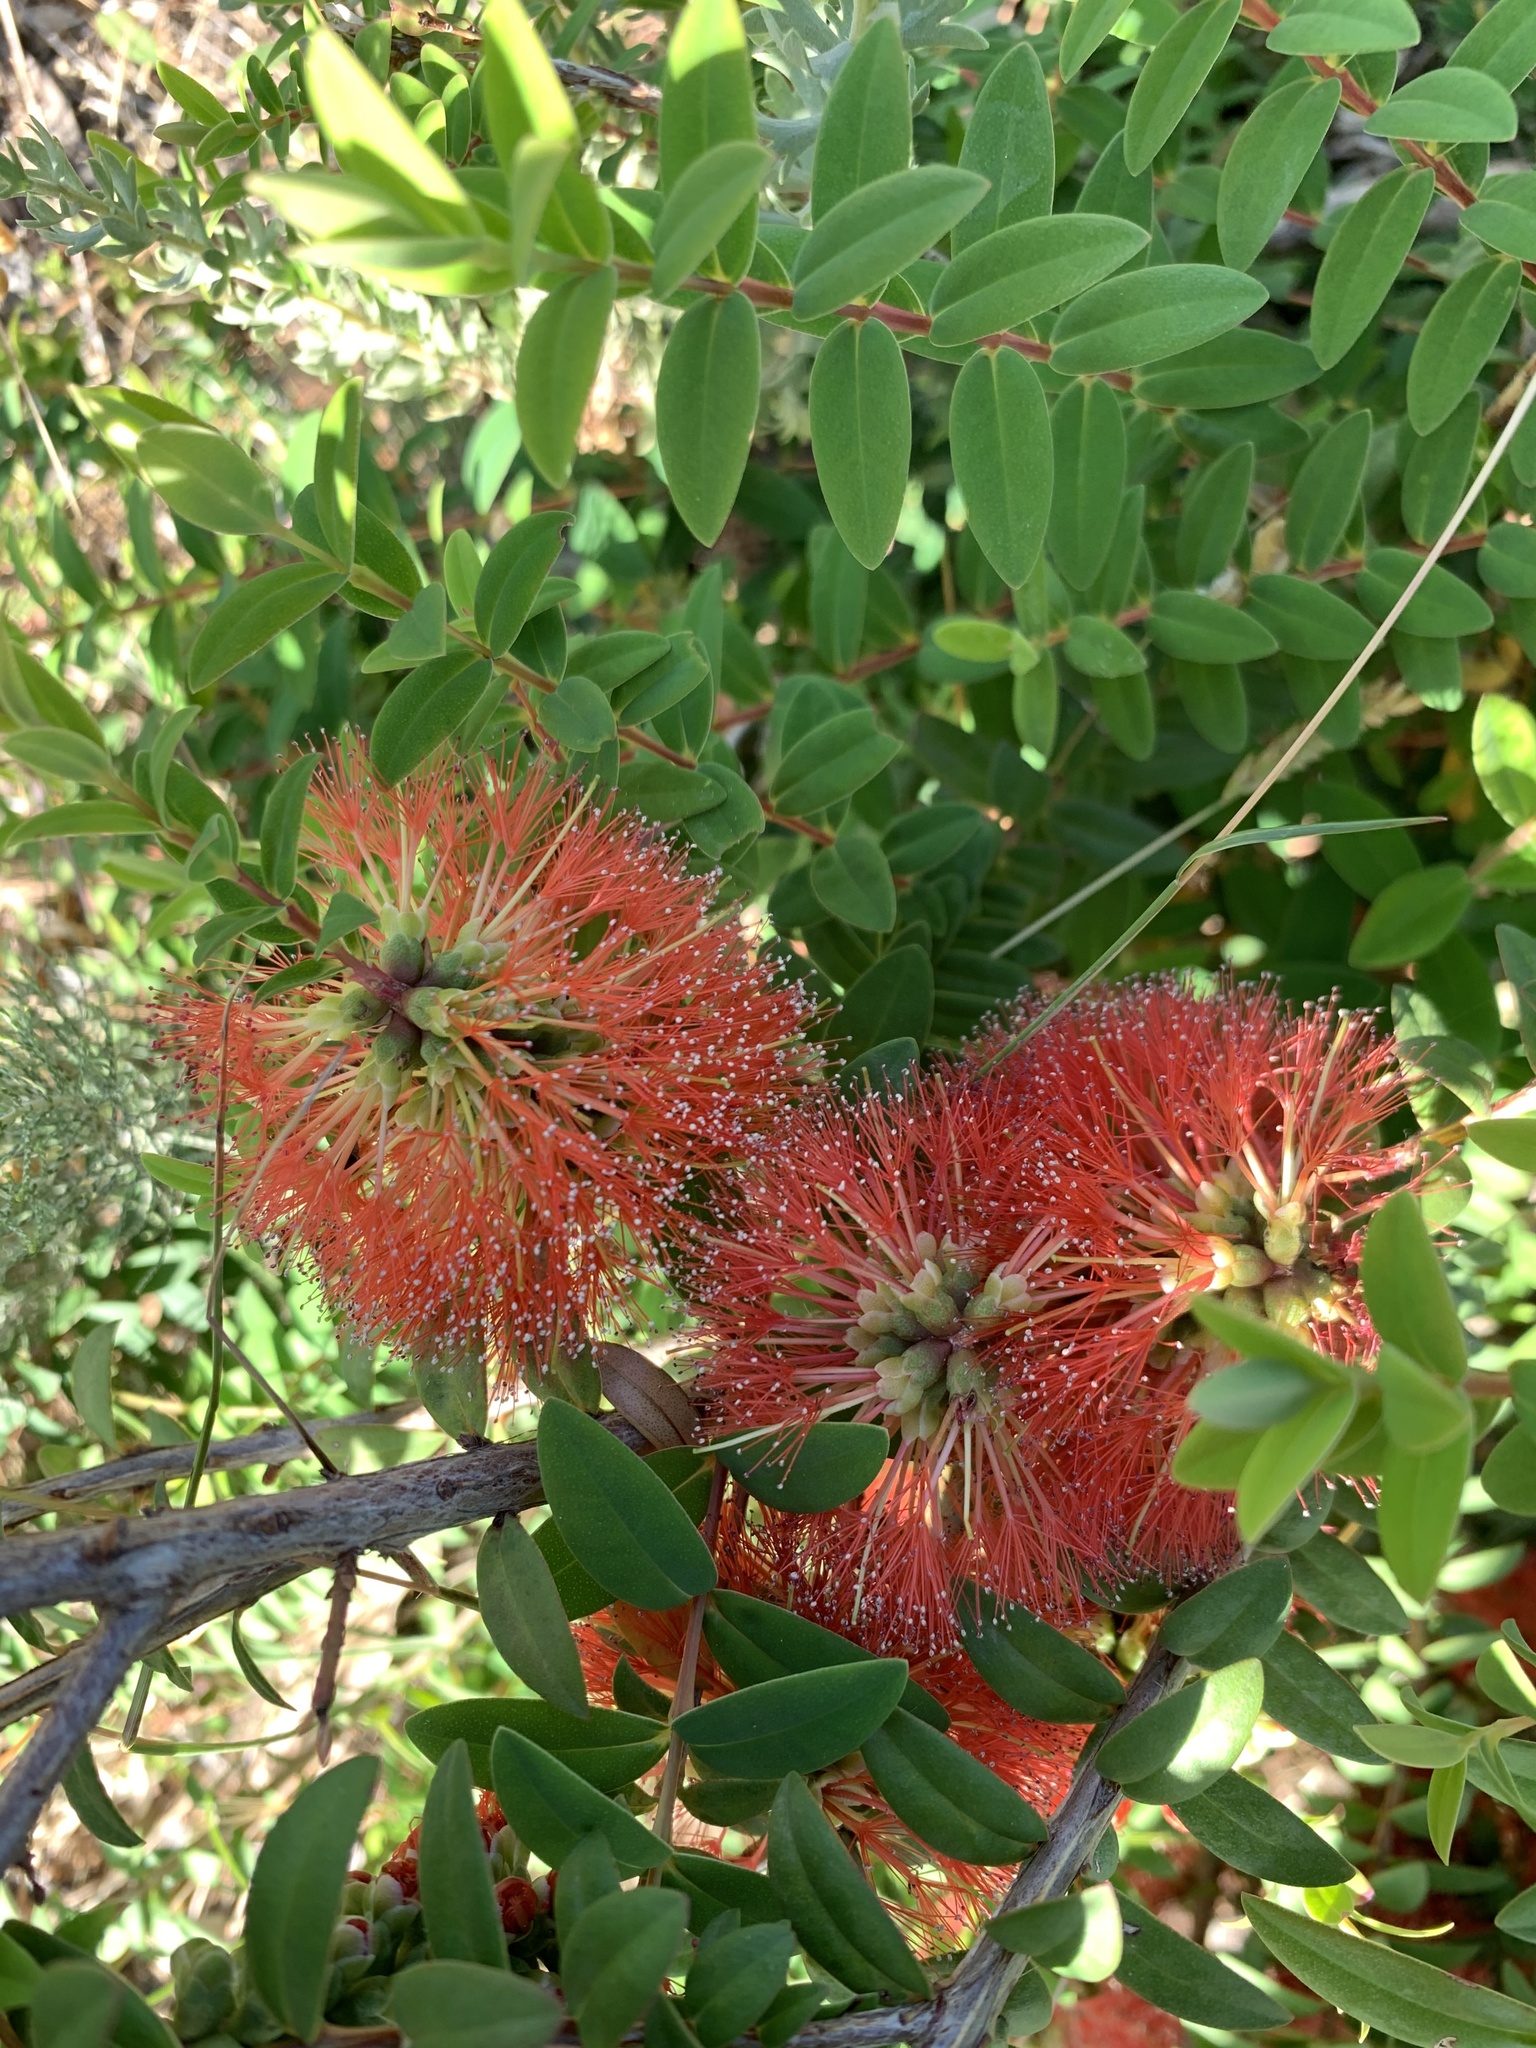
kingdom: Plantae
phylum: Tracheophyta
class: Magnoliopsida
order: Myrtales
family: Myrtaceae
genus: Melaleuca
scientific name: Melaleuca hypericifolia
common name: Red honey myrtle
